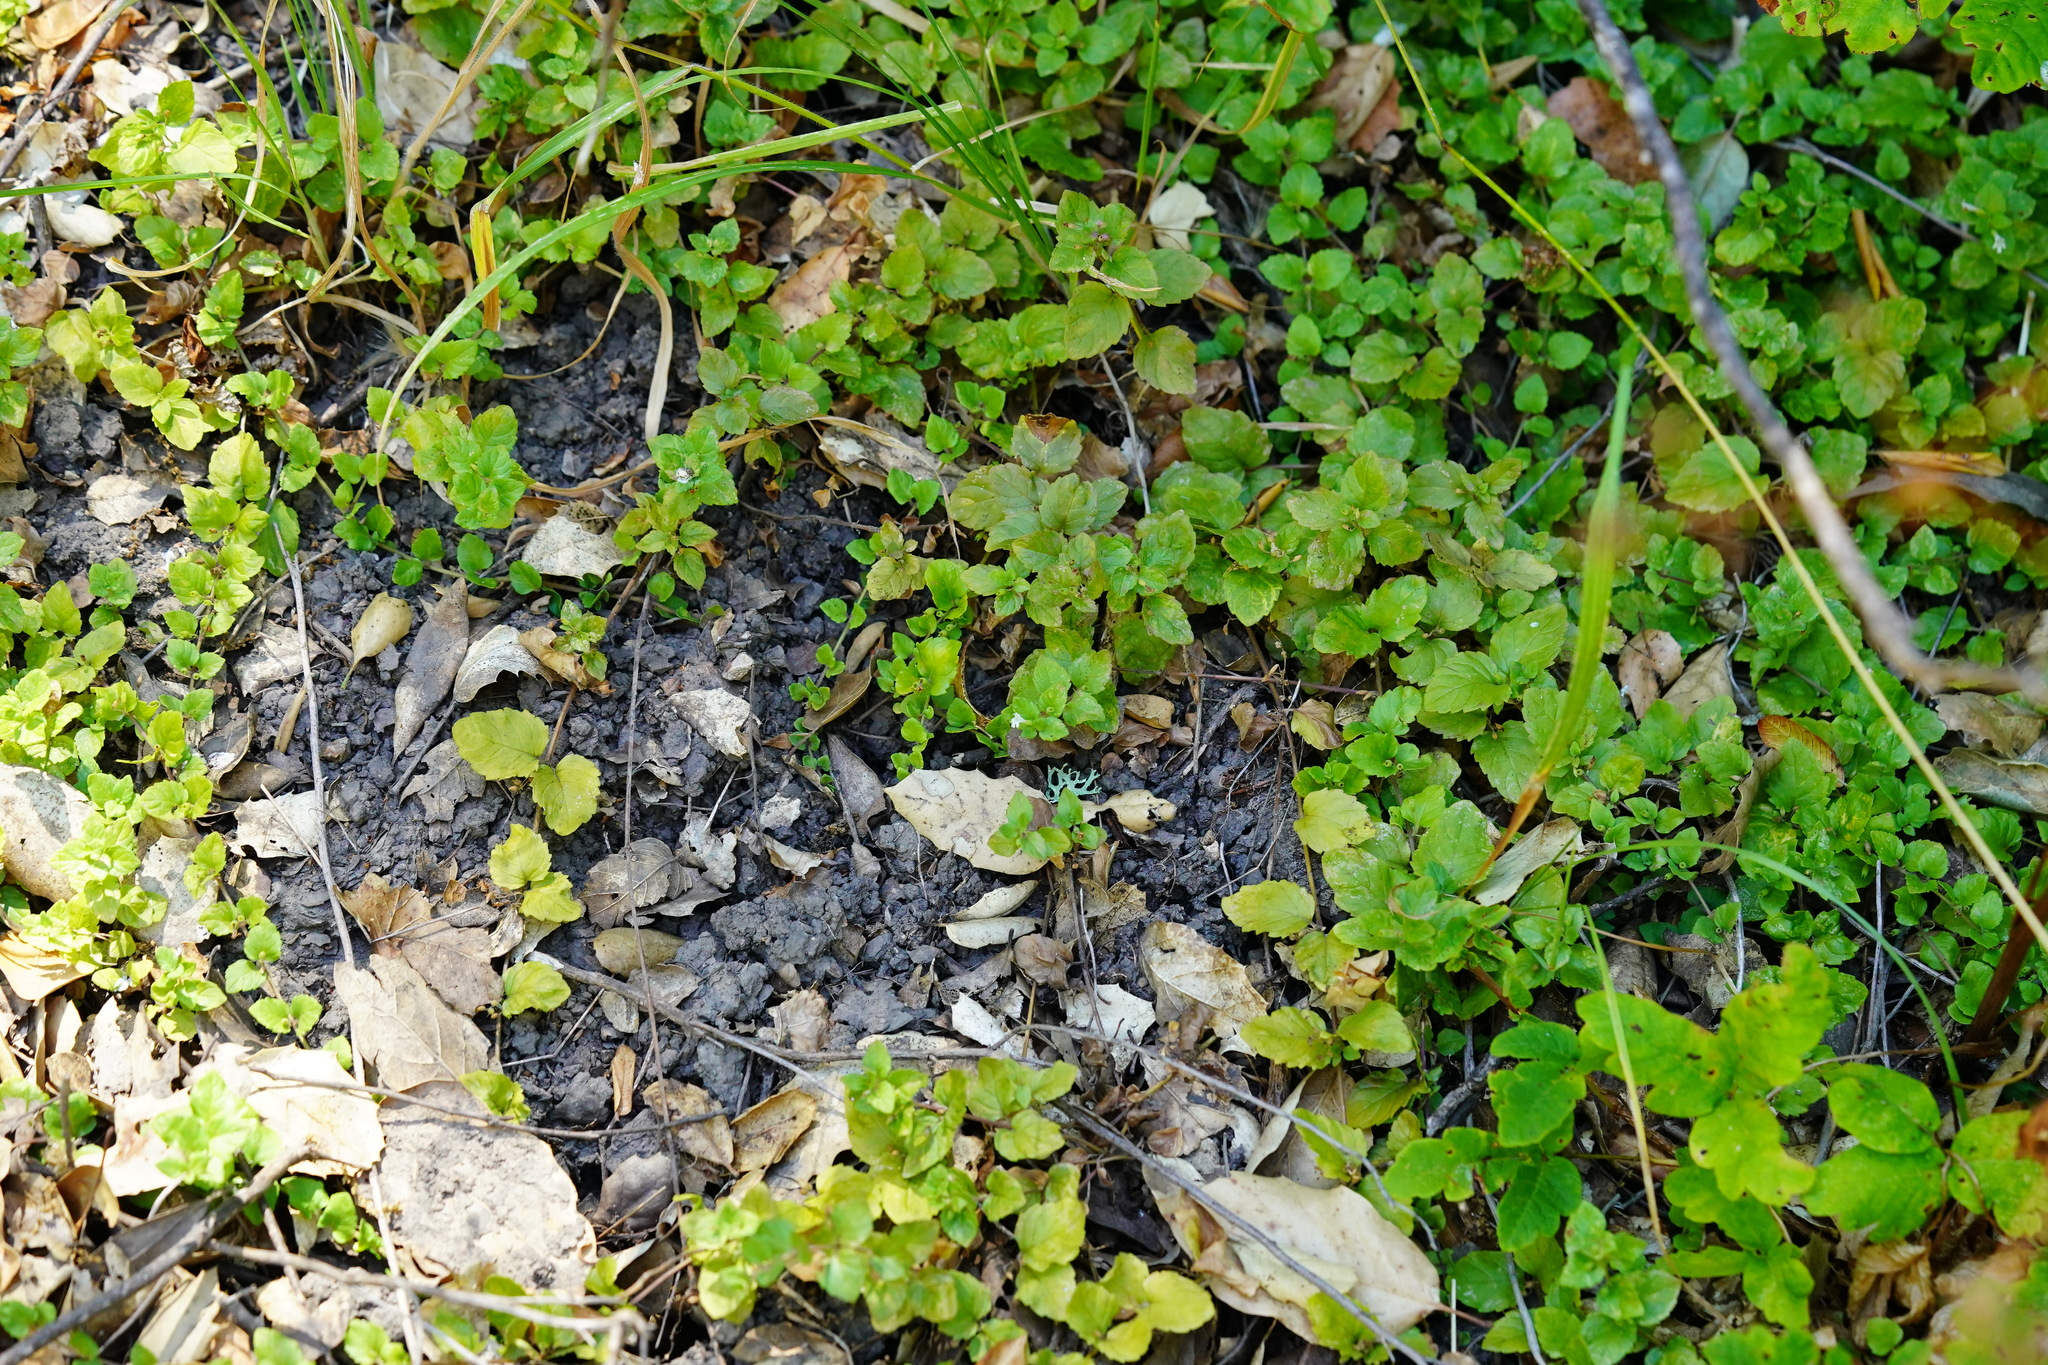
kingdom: Plantae
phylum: Tracheophyta
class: Magnoliopsida
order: Lamiales
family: Lamiaceae
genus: Micromeria
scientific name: Micromeria douglasii
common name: Yerba buena
